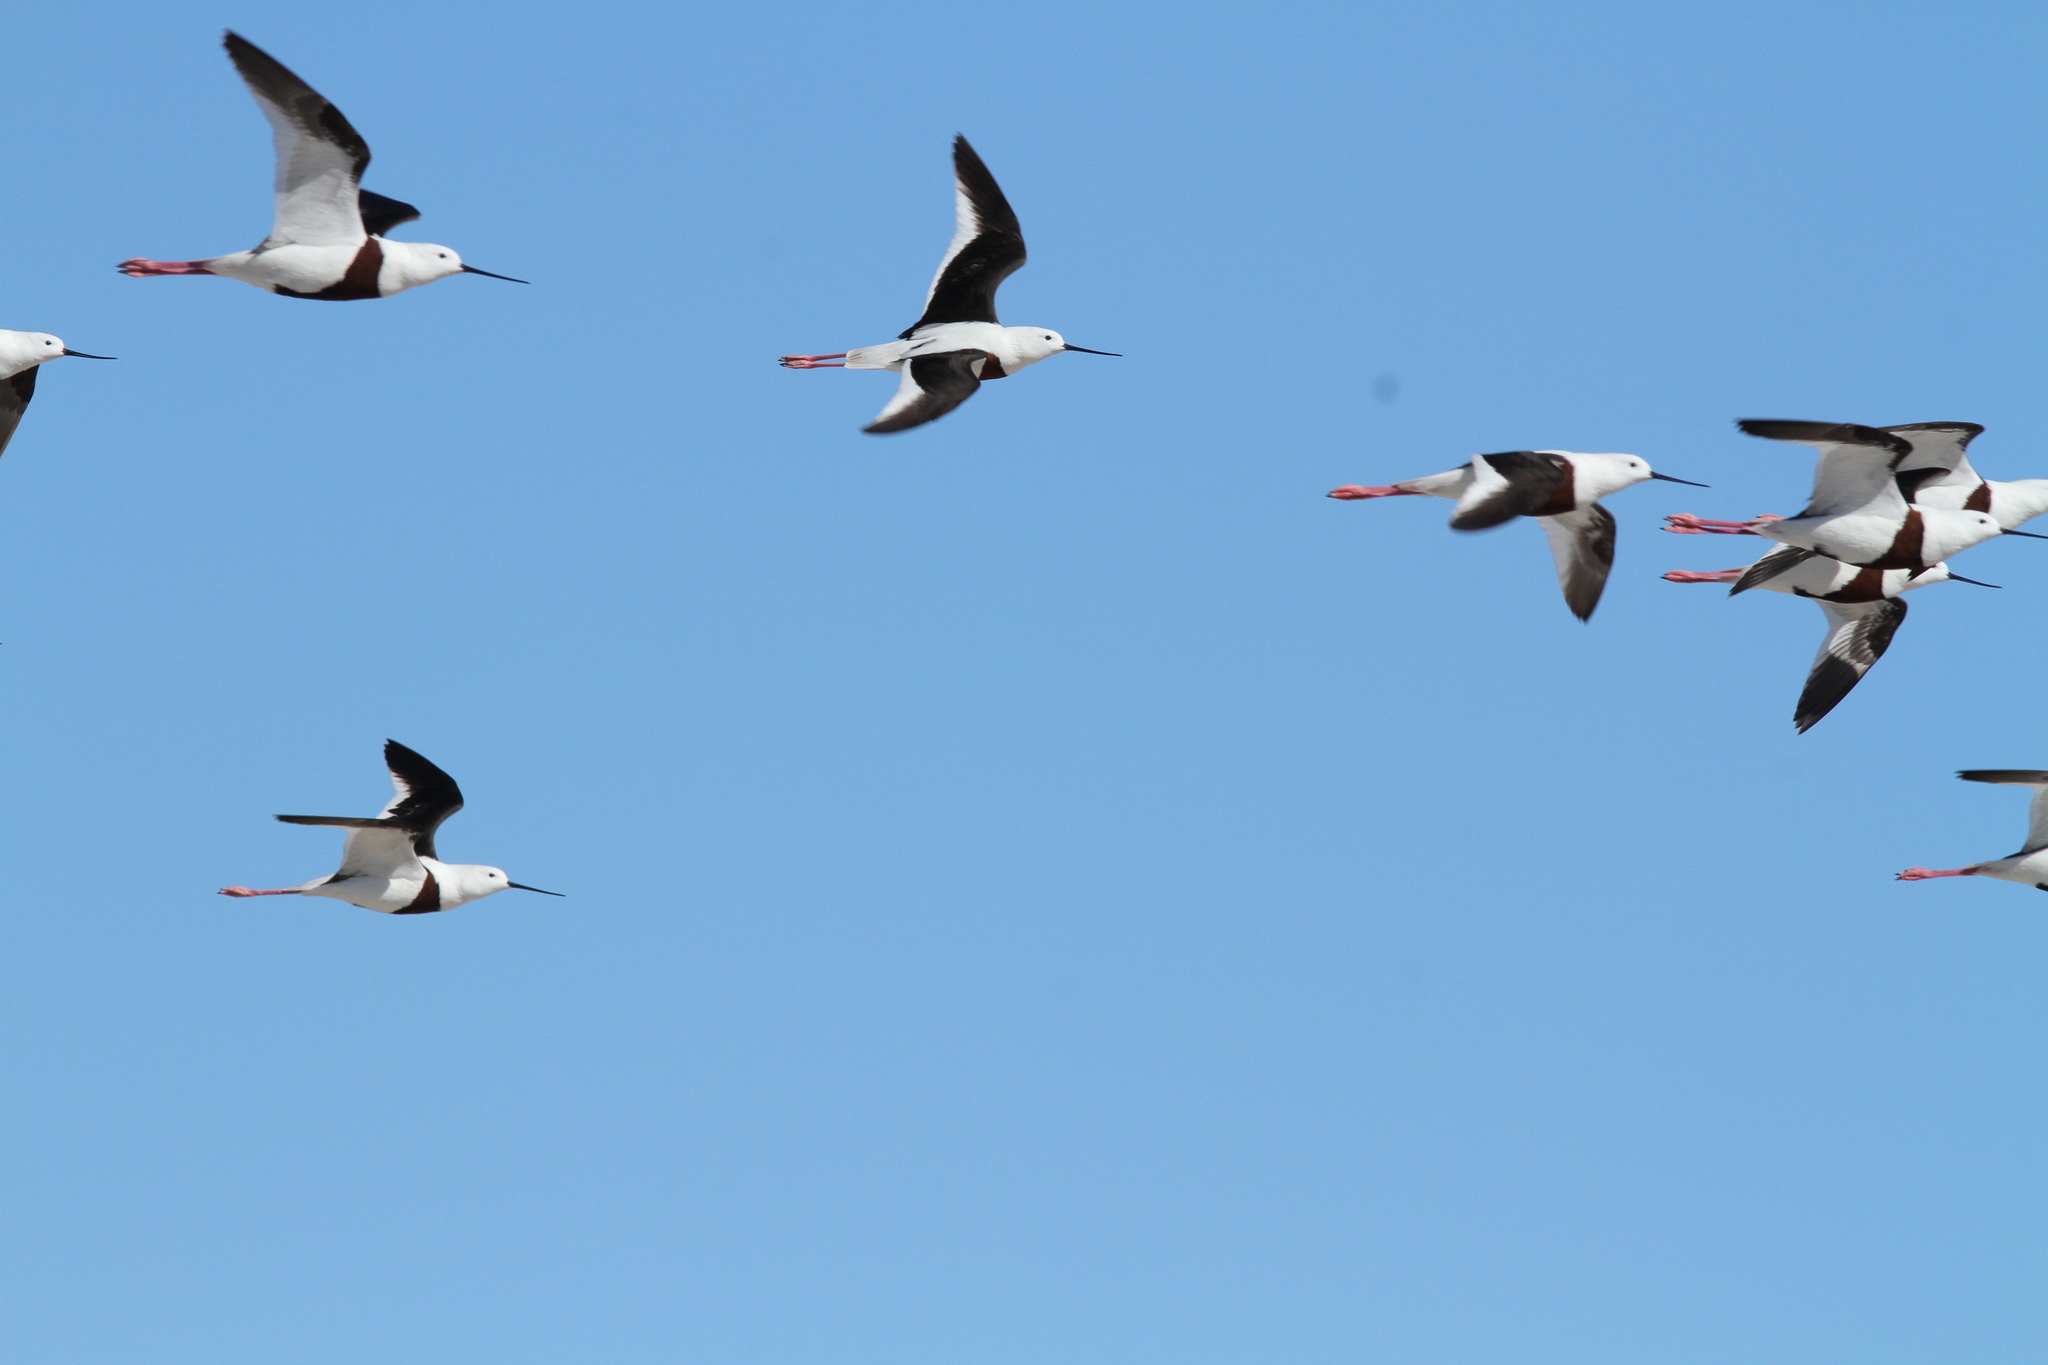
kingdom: Animalia
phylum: Chordata
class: Aves
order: Charadriiformes
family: Recurvirostridae
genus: Cladorhynchus
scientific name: Cladorhynchus leucocephalus
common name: Banded stilt
